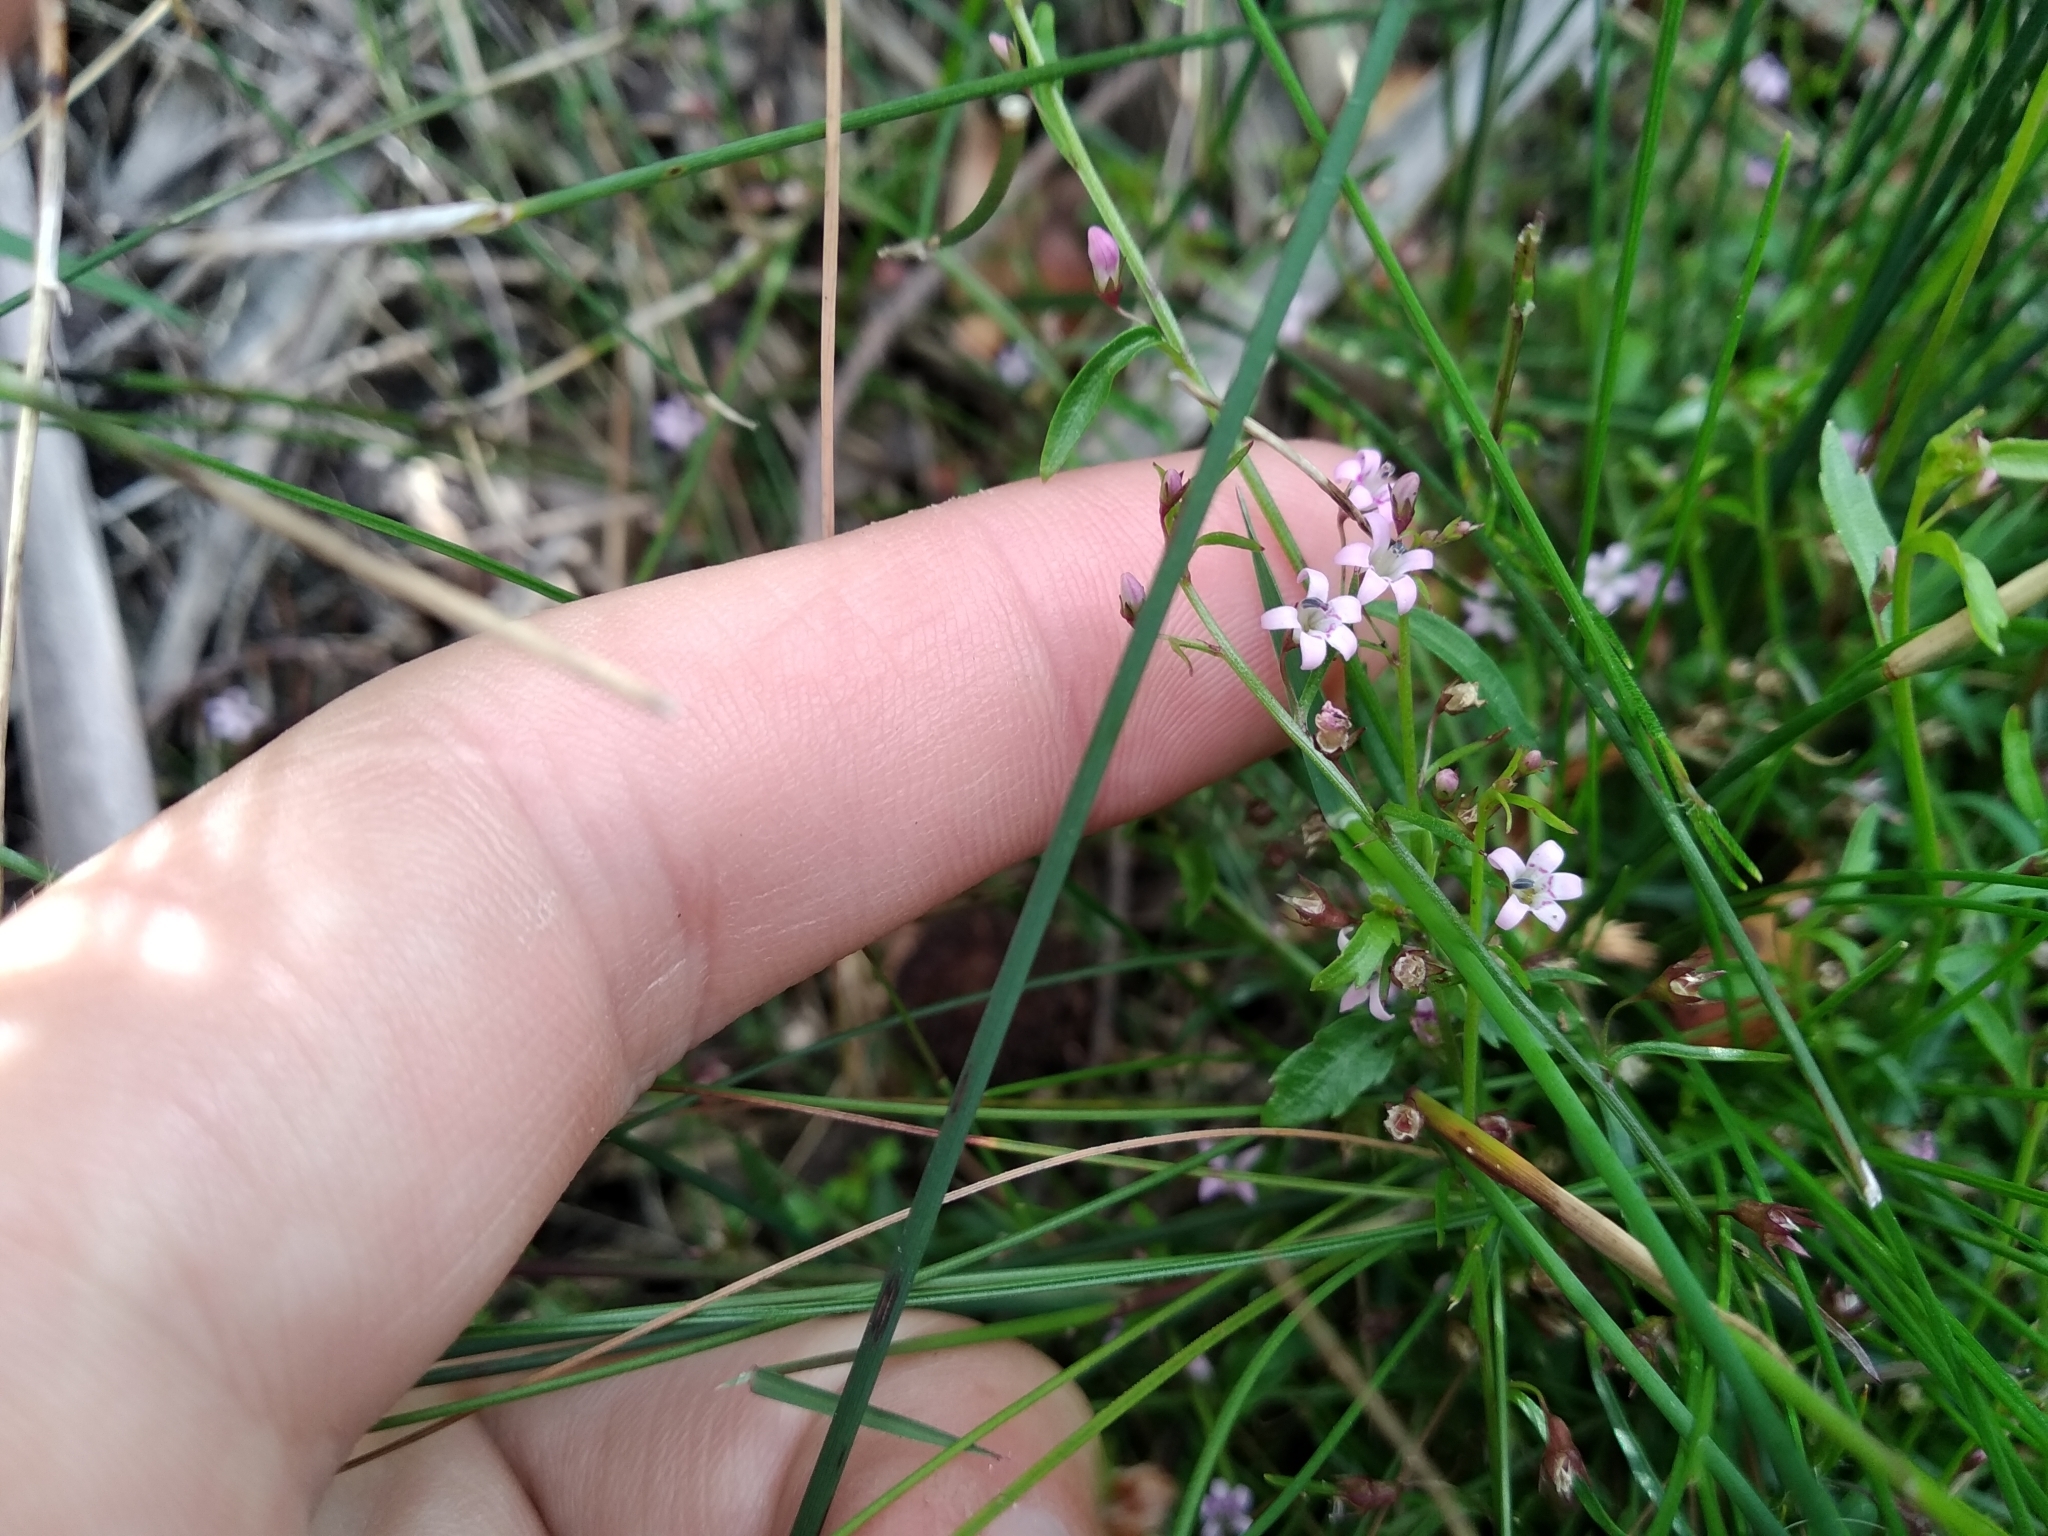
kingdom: Plantae
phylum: Tracheophyta
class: Magnoliopsida
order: Asterales
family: Campanulaceae
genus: Lobelia
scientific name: Lobelia eckloniana
